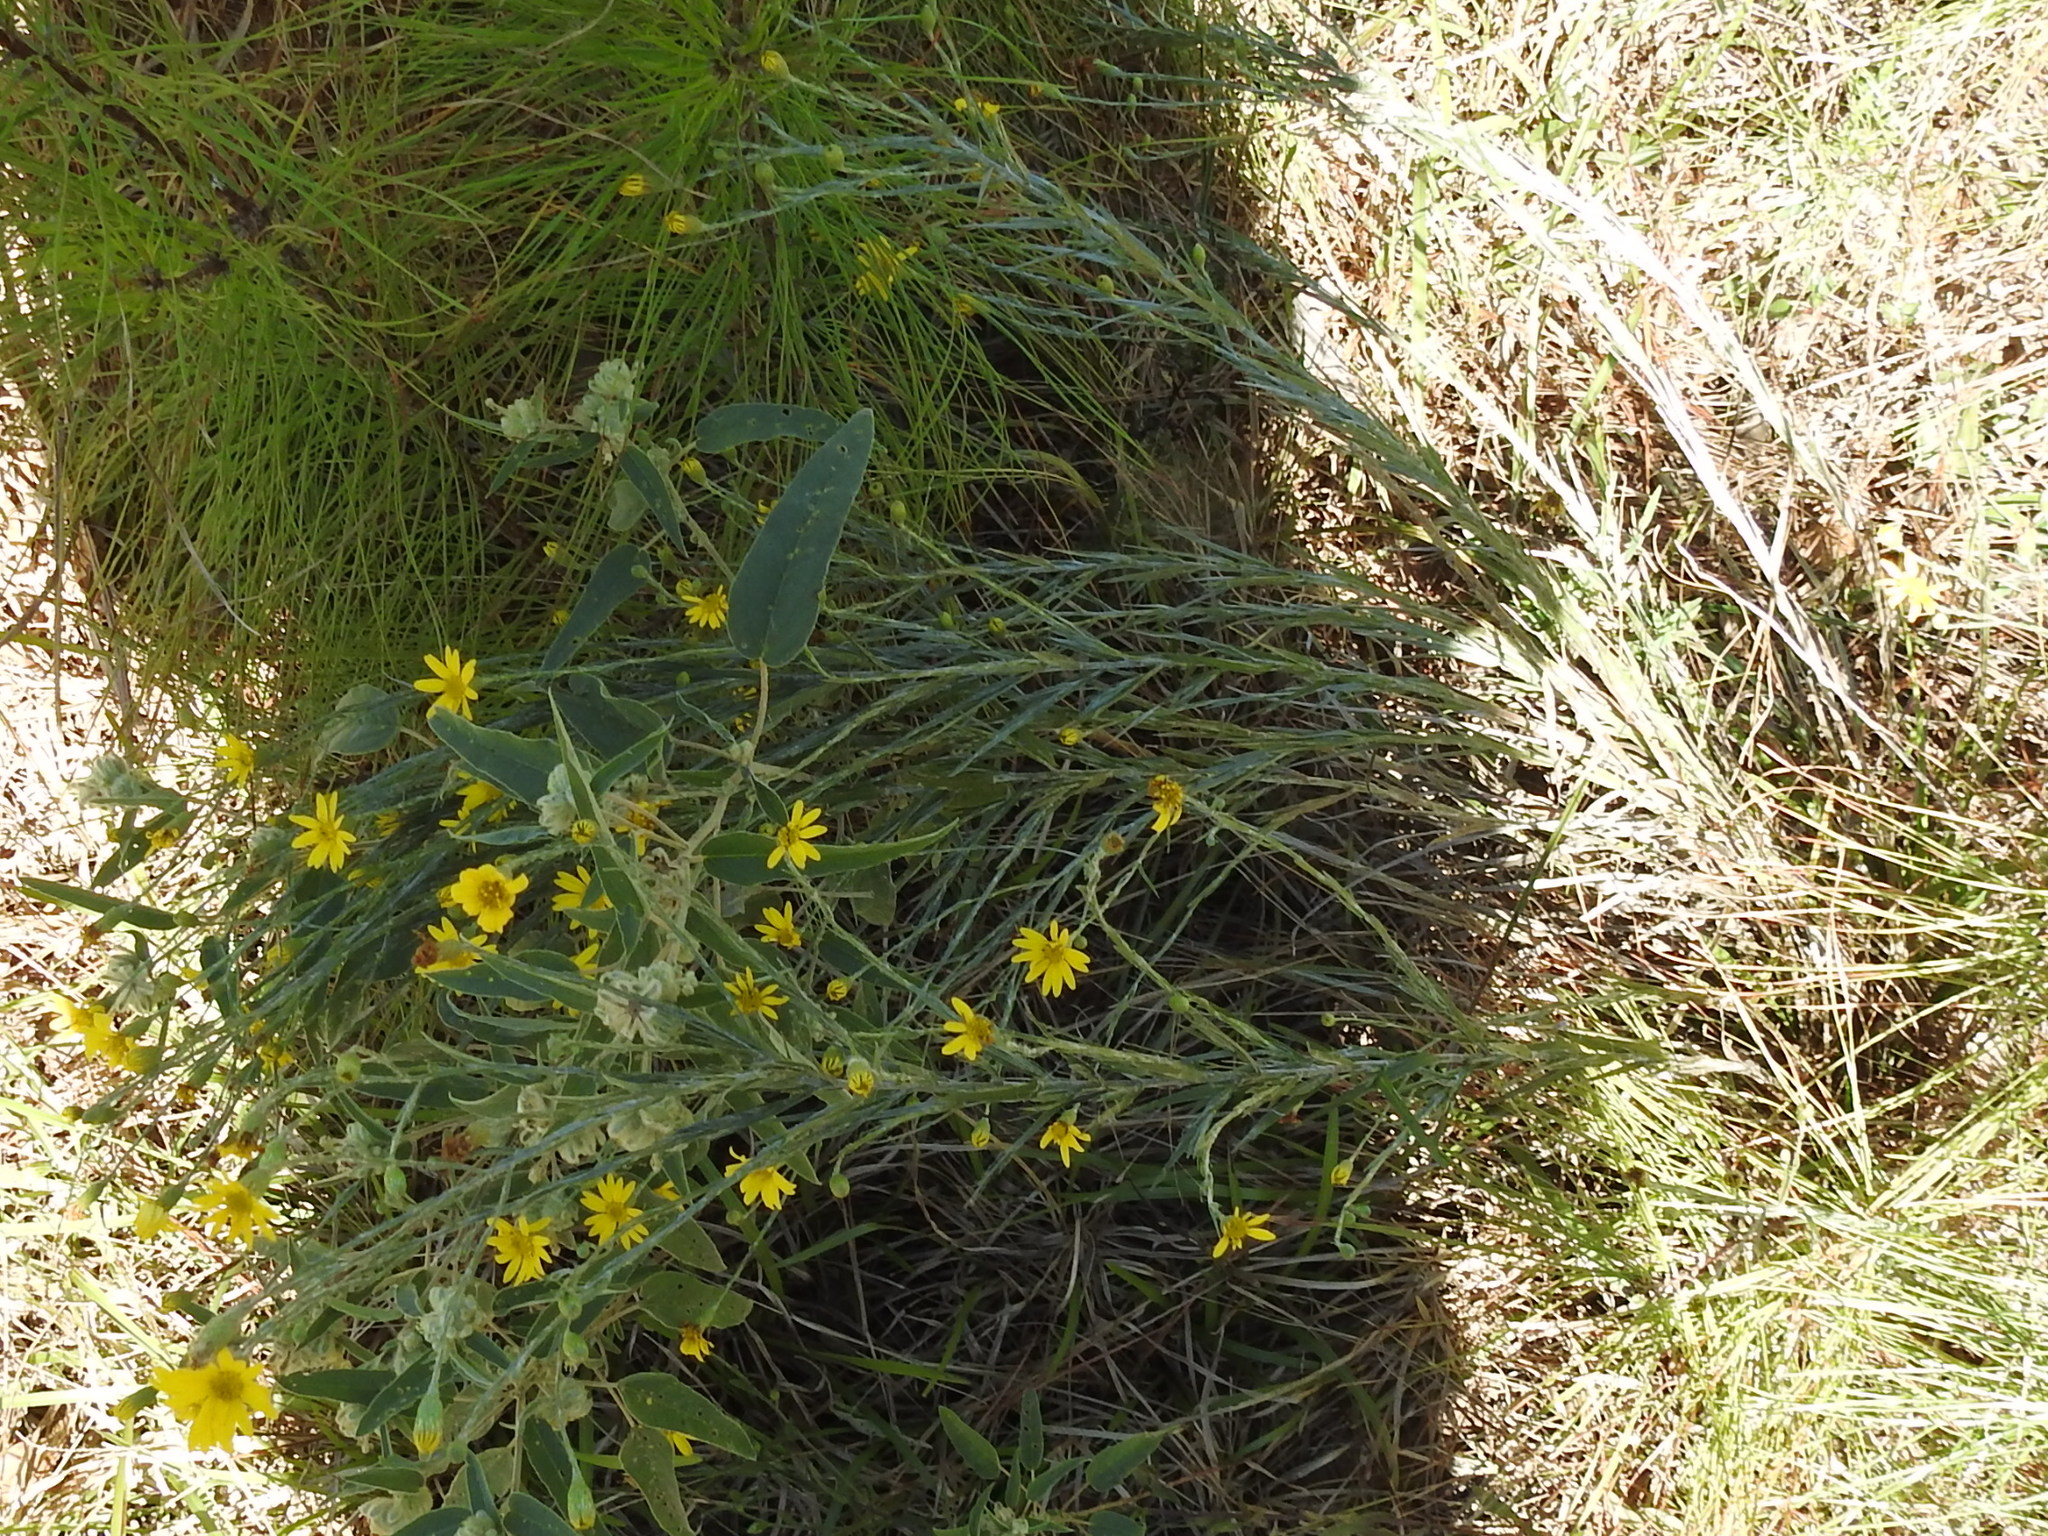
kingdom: Plantae
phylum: Tracheophyta
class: Magnoliopsida
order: Asterales
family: Asteraceae
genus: Pityopsis
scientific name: Pityopsis graminifolia
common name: Grass-leaf golden-aster
